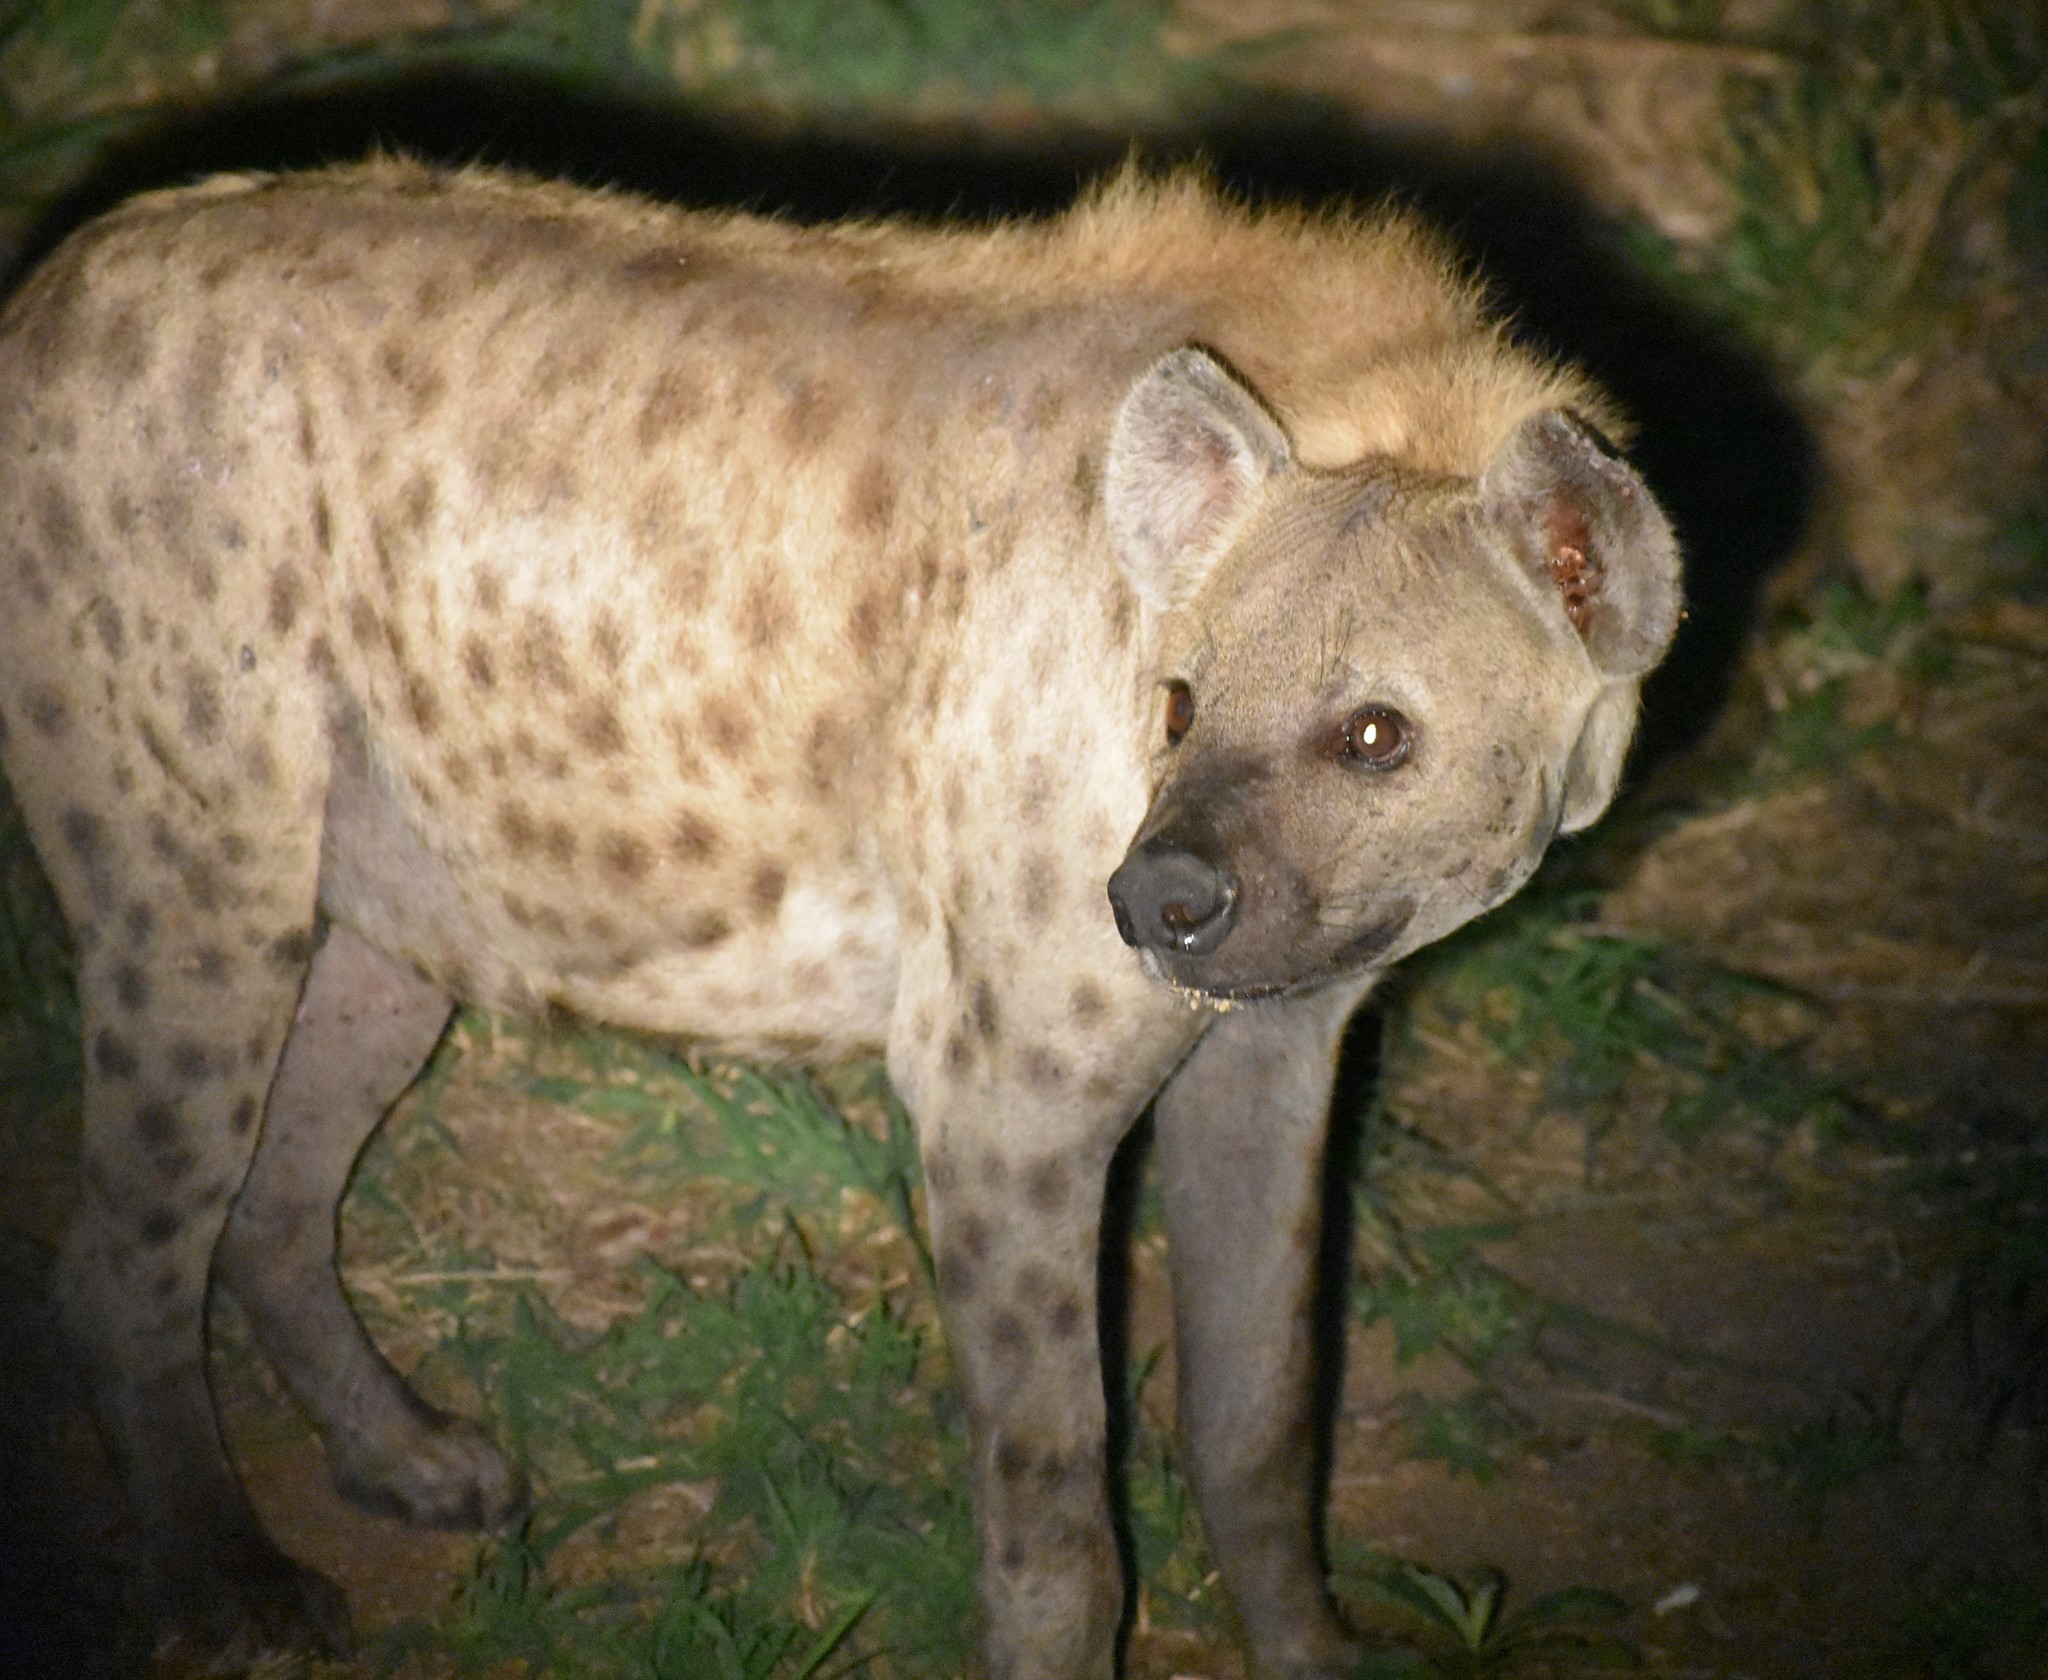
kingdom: Animalia
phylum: Chordata
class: Mammalia
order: Carnivora
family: Hyaenidae
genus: Crocuta
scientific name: Crocuta crocuta
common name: Spotted hyaena
